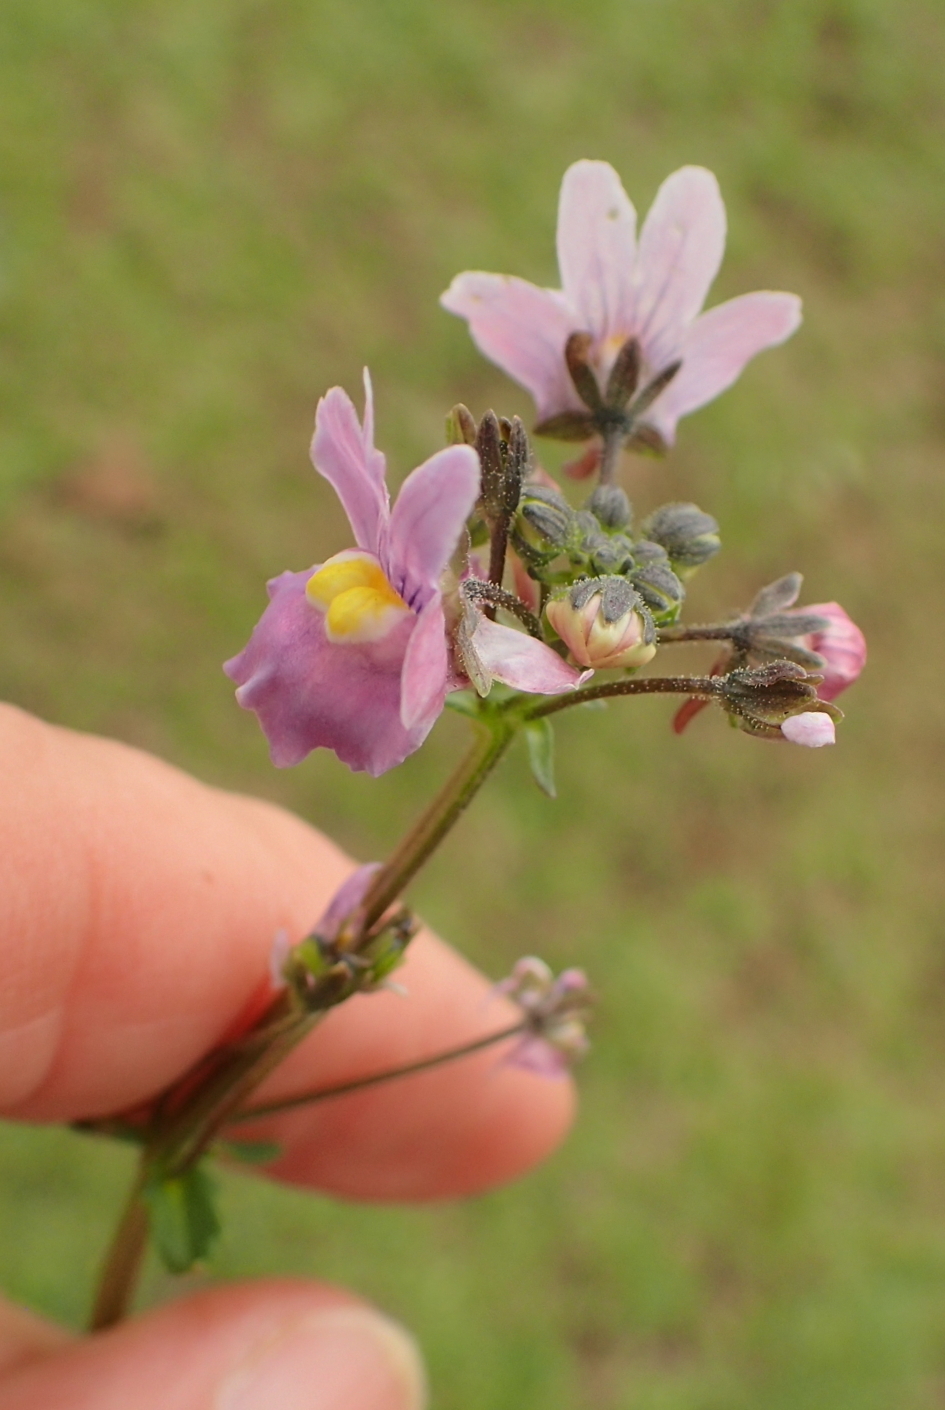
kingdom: Plantae
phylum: Tracheophyta
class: Magnoliopsida
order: Lamiales
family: Scrophulariaceae
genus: Nemesia
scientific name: Nemesia denticulata
